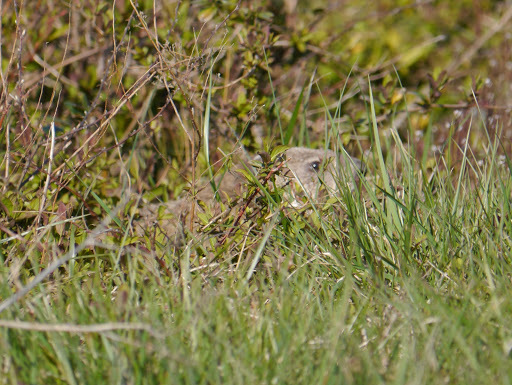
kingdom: Animalia
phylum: Chordata
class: Mammalia
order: Rodentia
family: Sciuridae
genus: Marmota
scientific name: Marmota monax
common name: Groundhog
